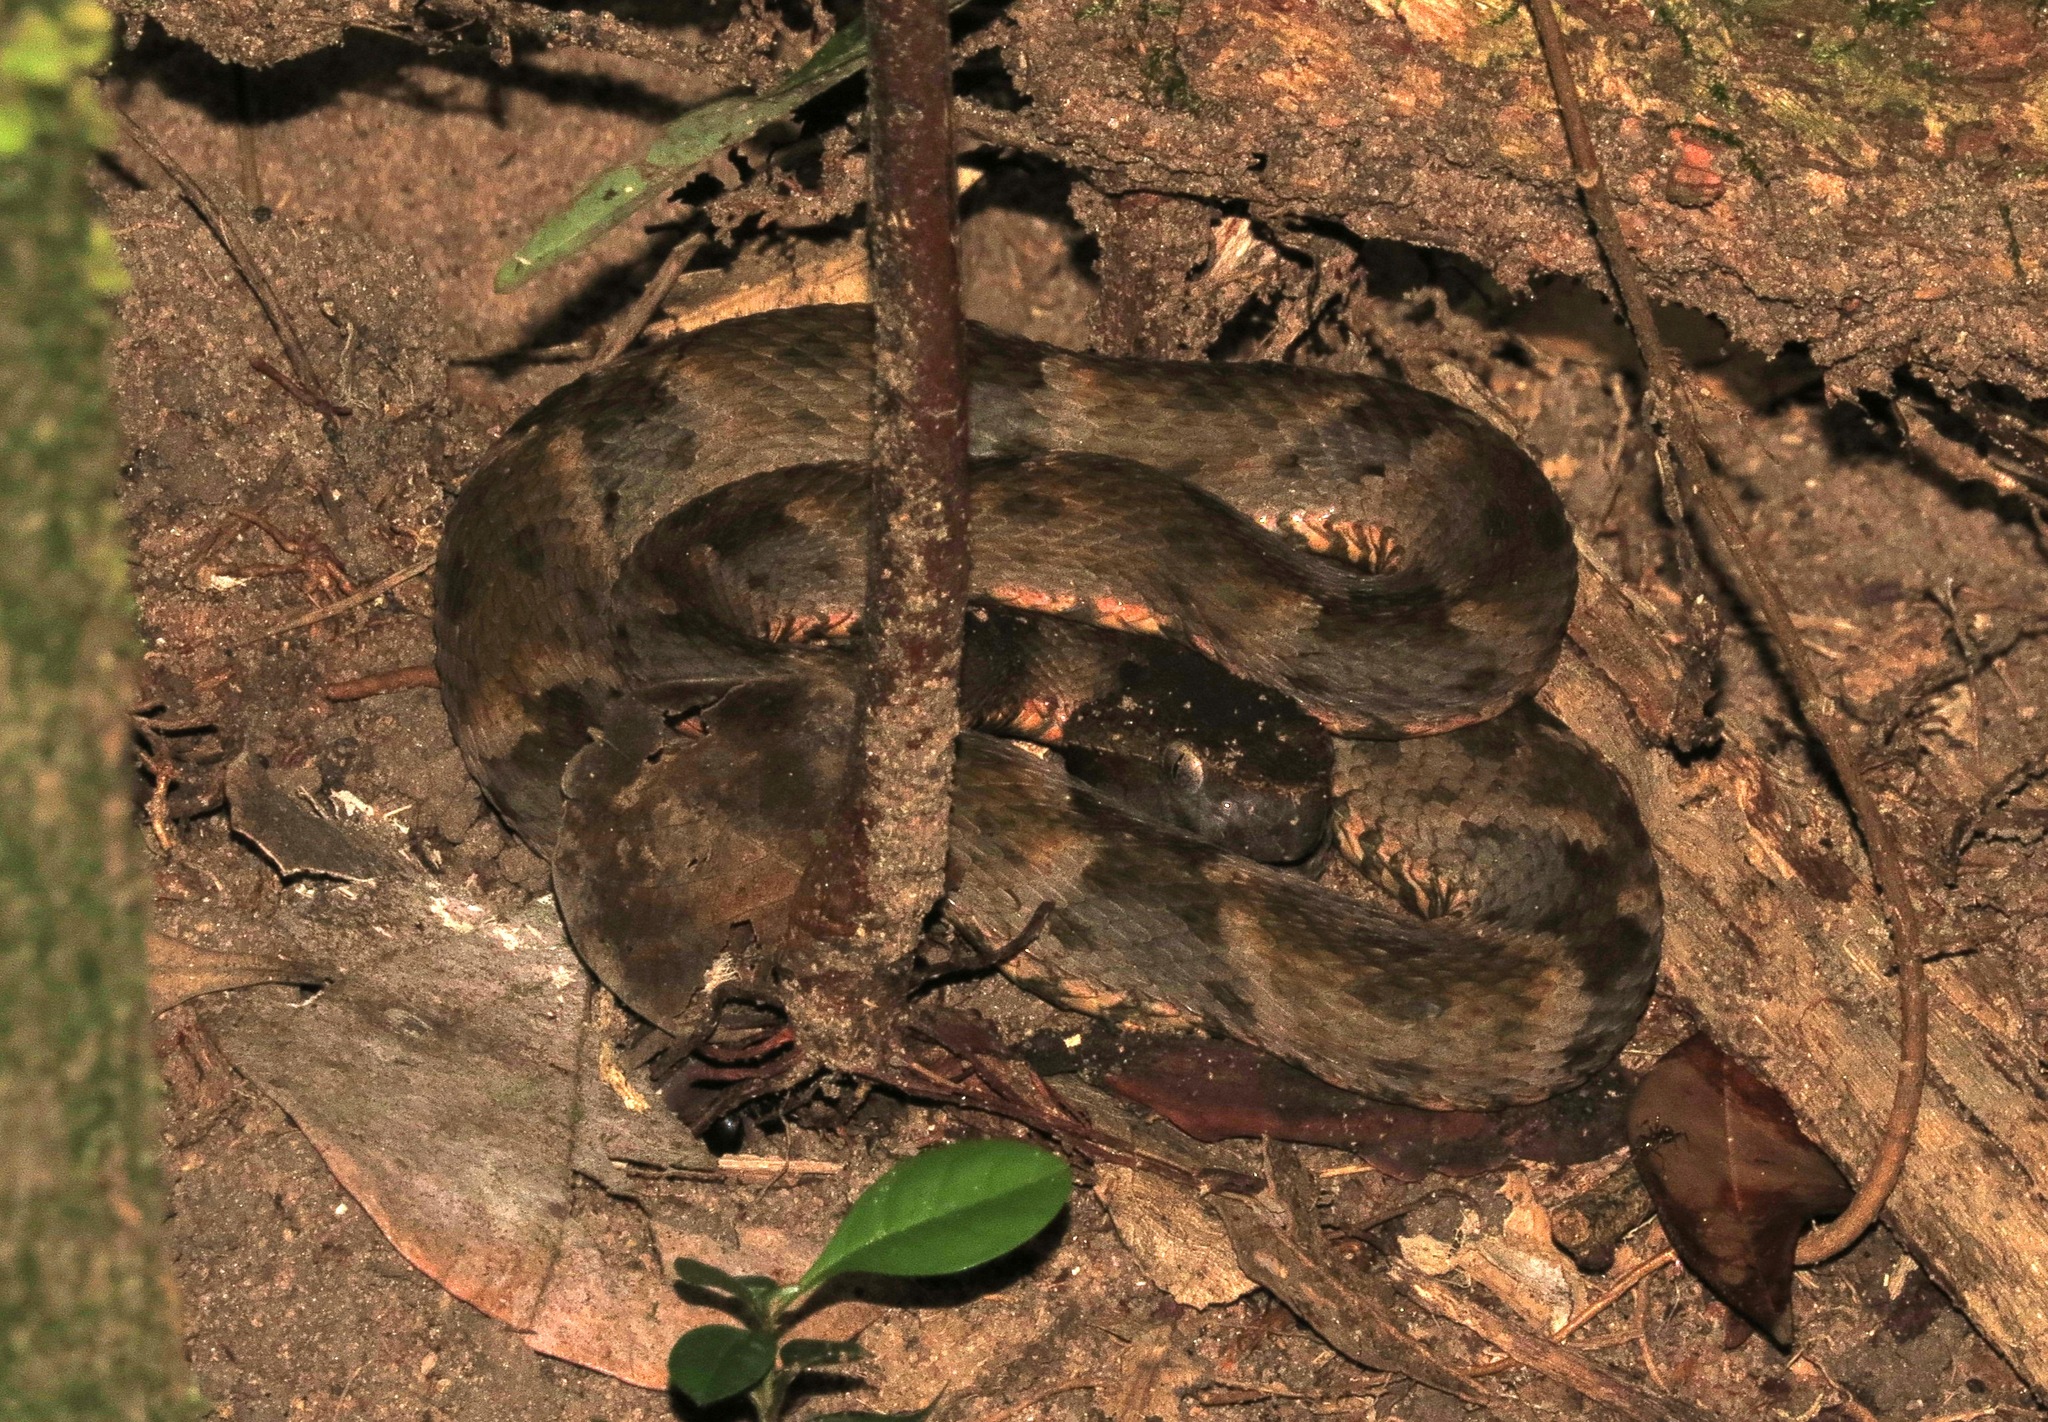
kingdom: Animalia
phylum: Chordata
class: Squamata
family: Viperidae
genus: Bothrops
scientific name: Bothrops atrox
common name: Common lancehead
